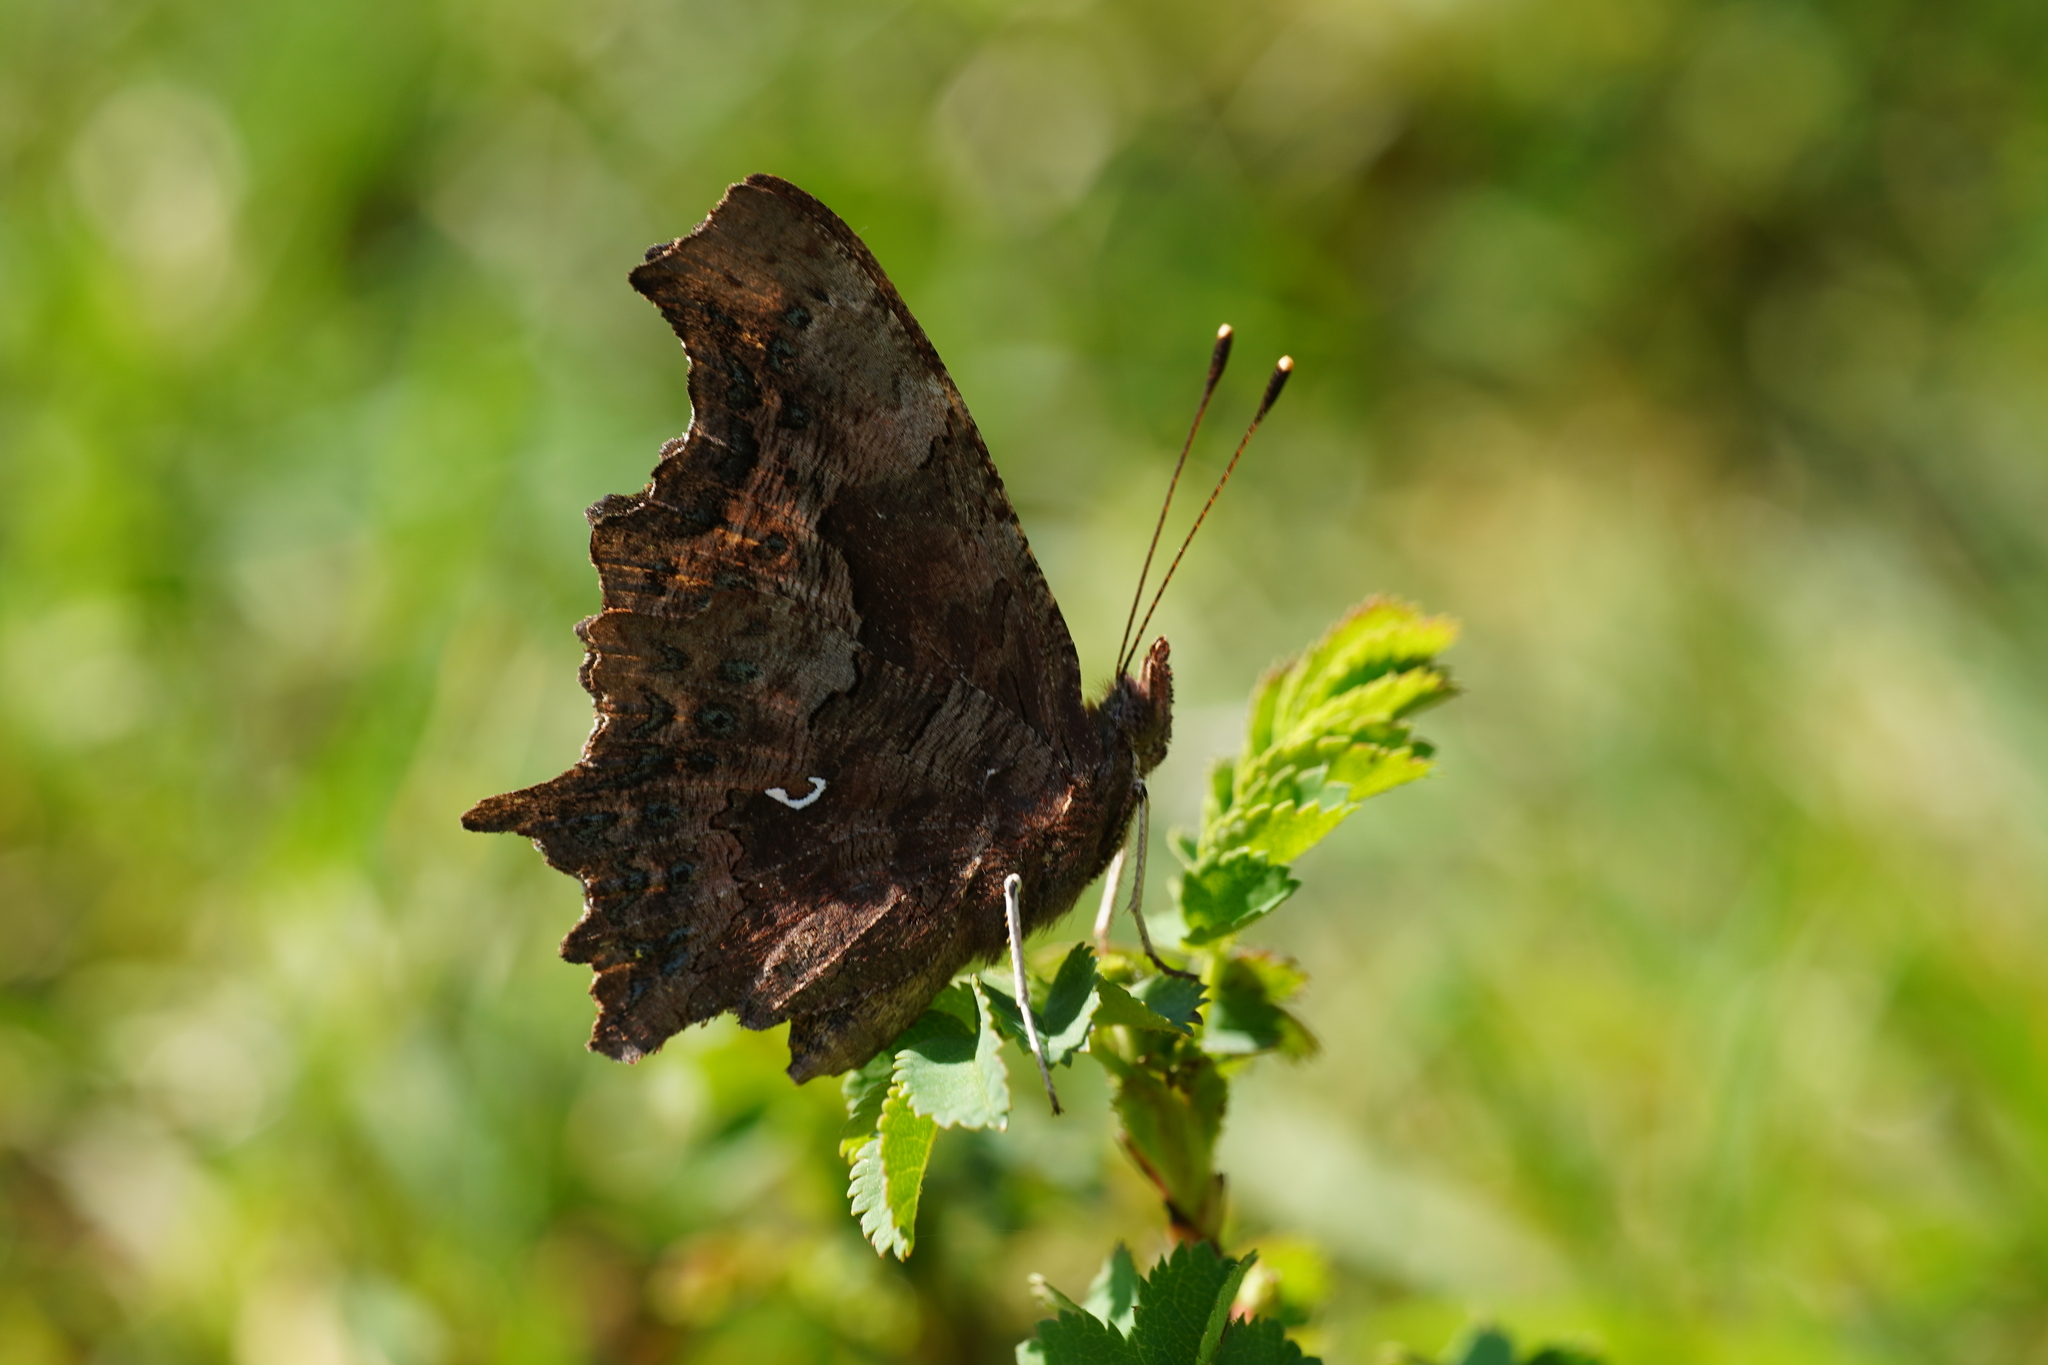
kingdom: Animalia
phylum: Arthropoda
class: Insecta
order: Lepidoptera
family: Nymphalidae
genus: Polygonia
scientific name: Polygonia c-album
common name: Comma
